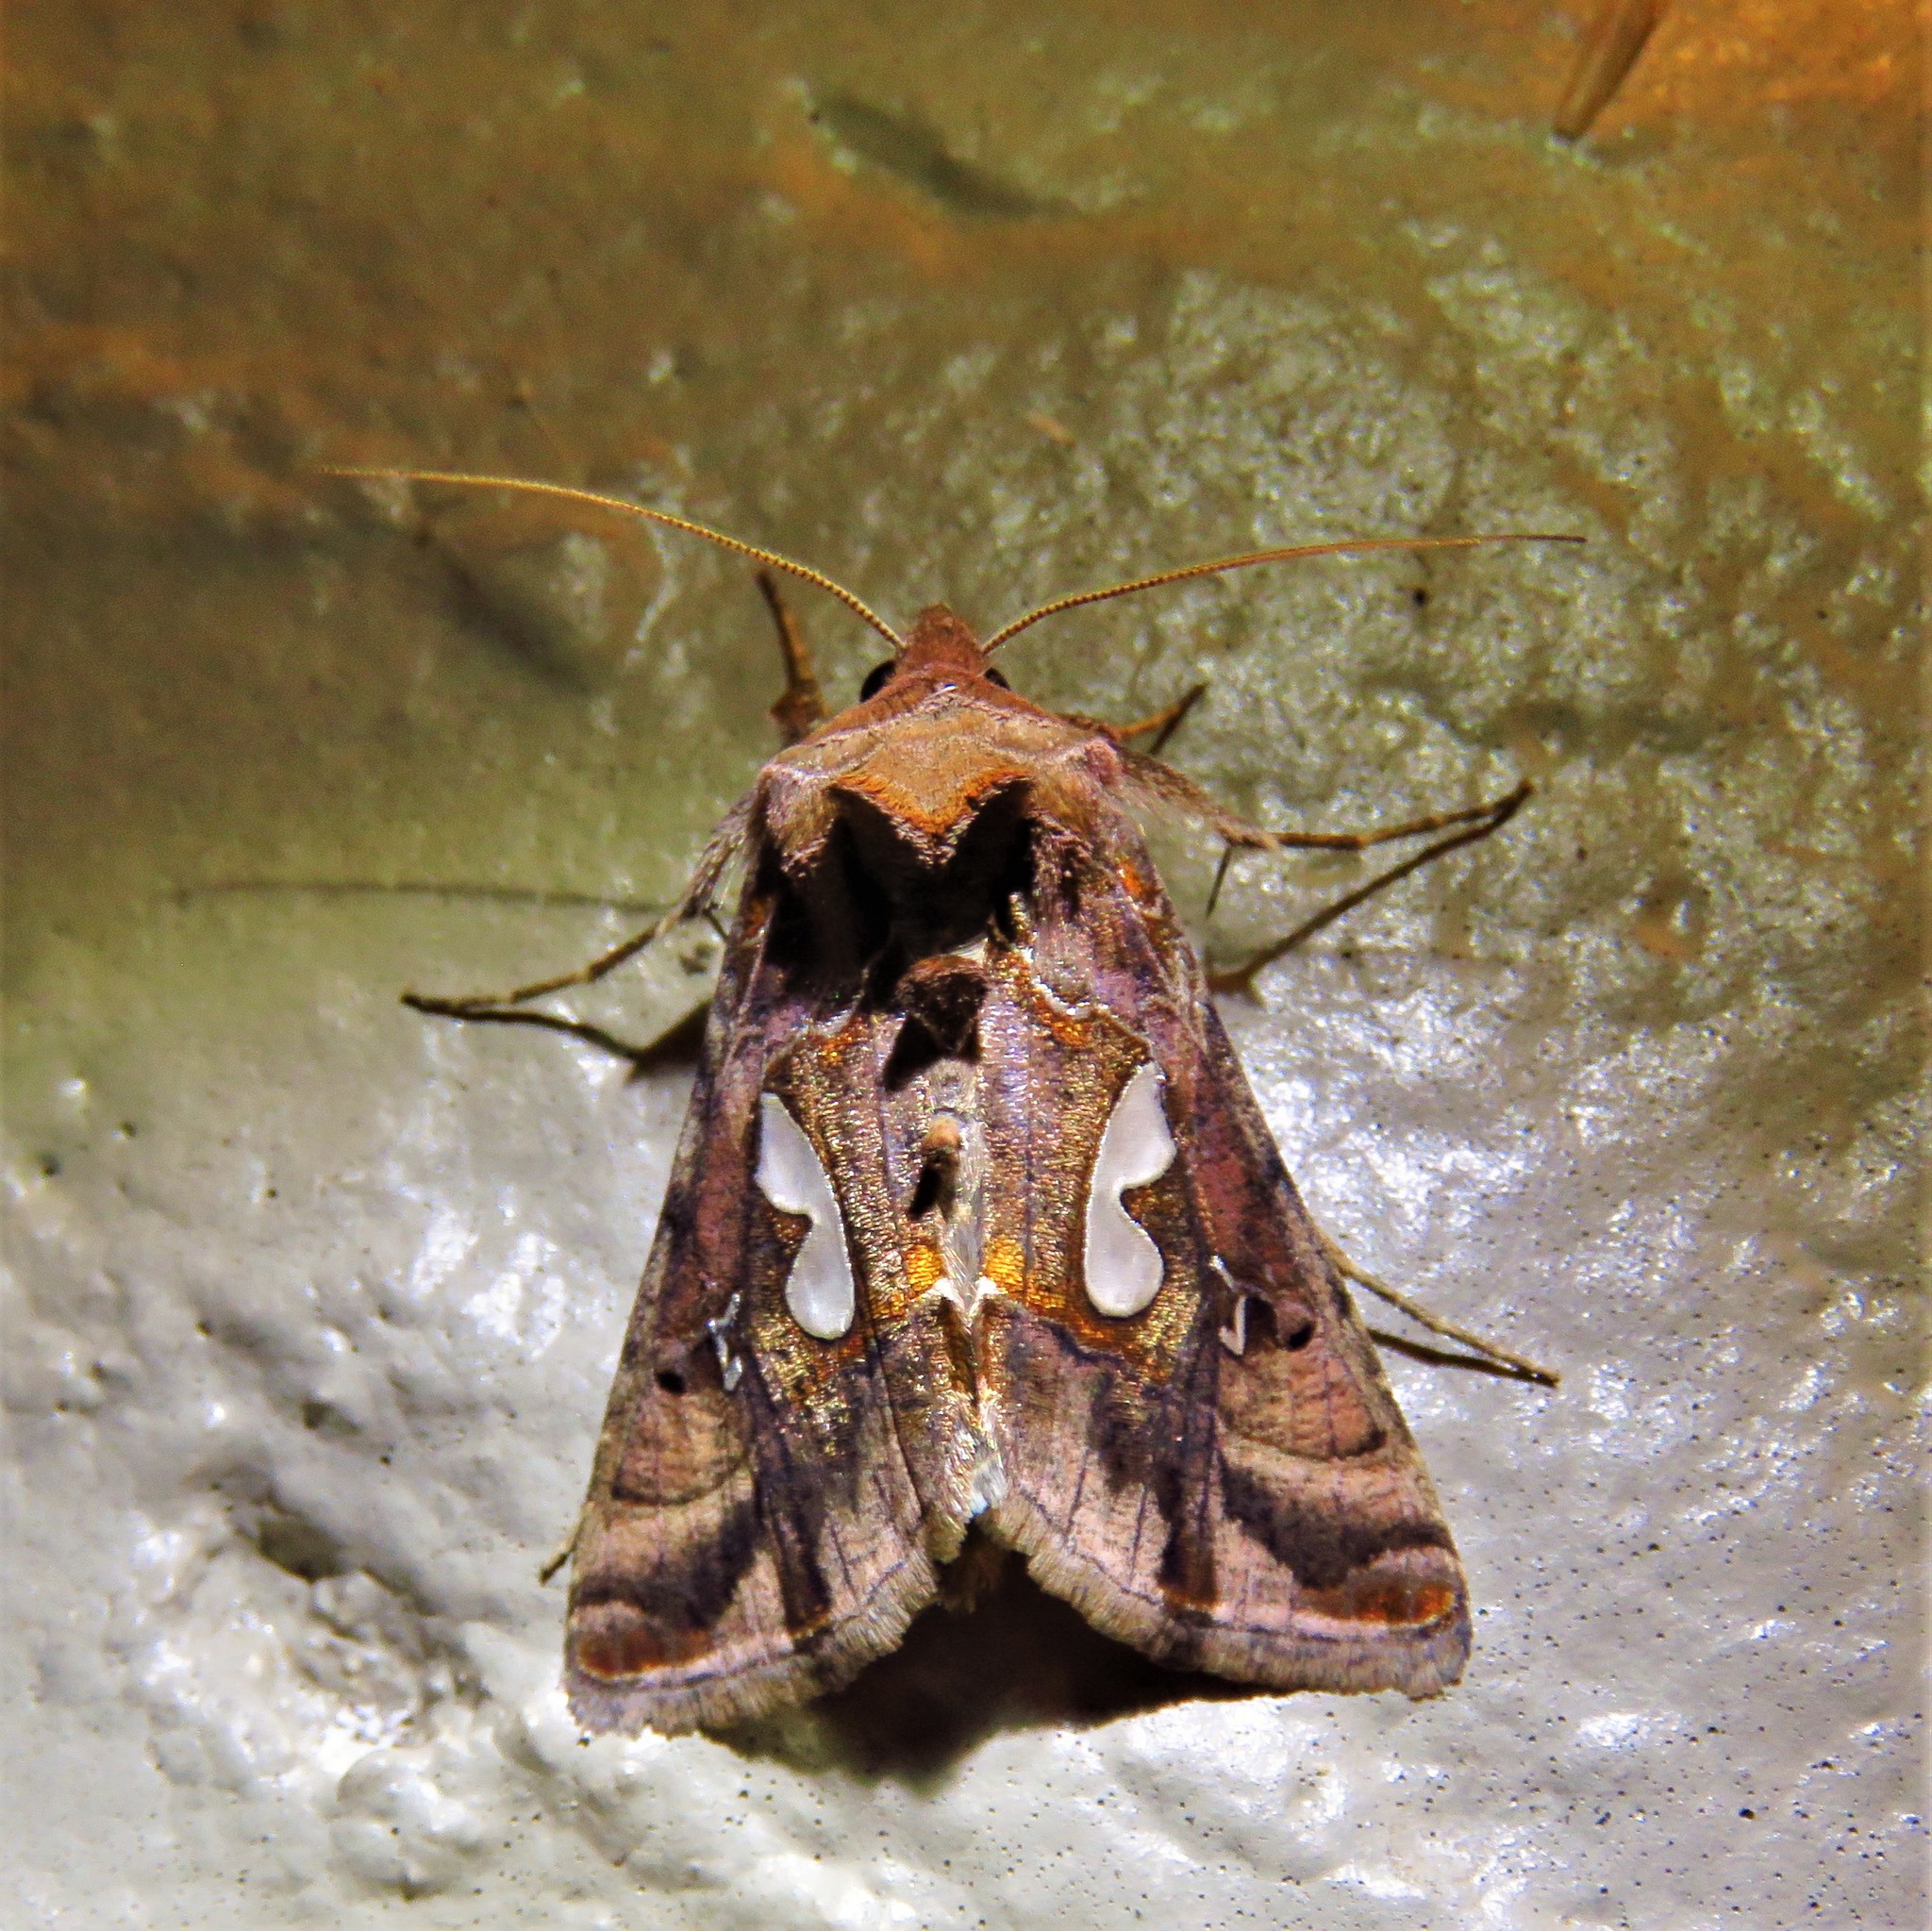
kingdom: Animalia
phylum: Arthropoda
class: Insecta
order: Lepidoptera
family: Noctuidae
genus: Megalographa
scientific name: Megalographa biloba
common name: Cutworm
